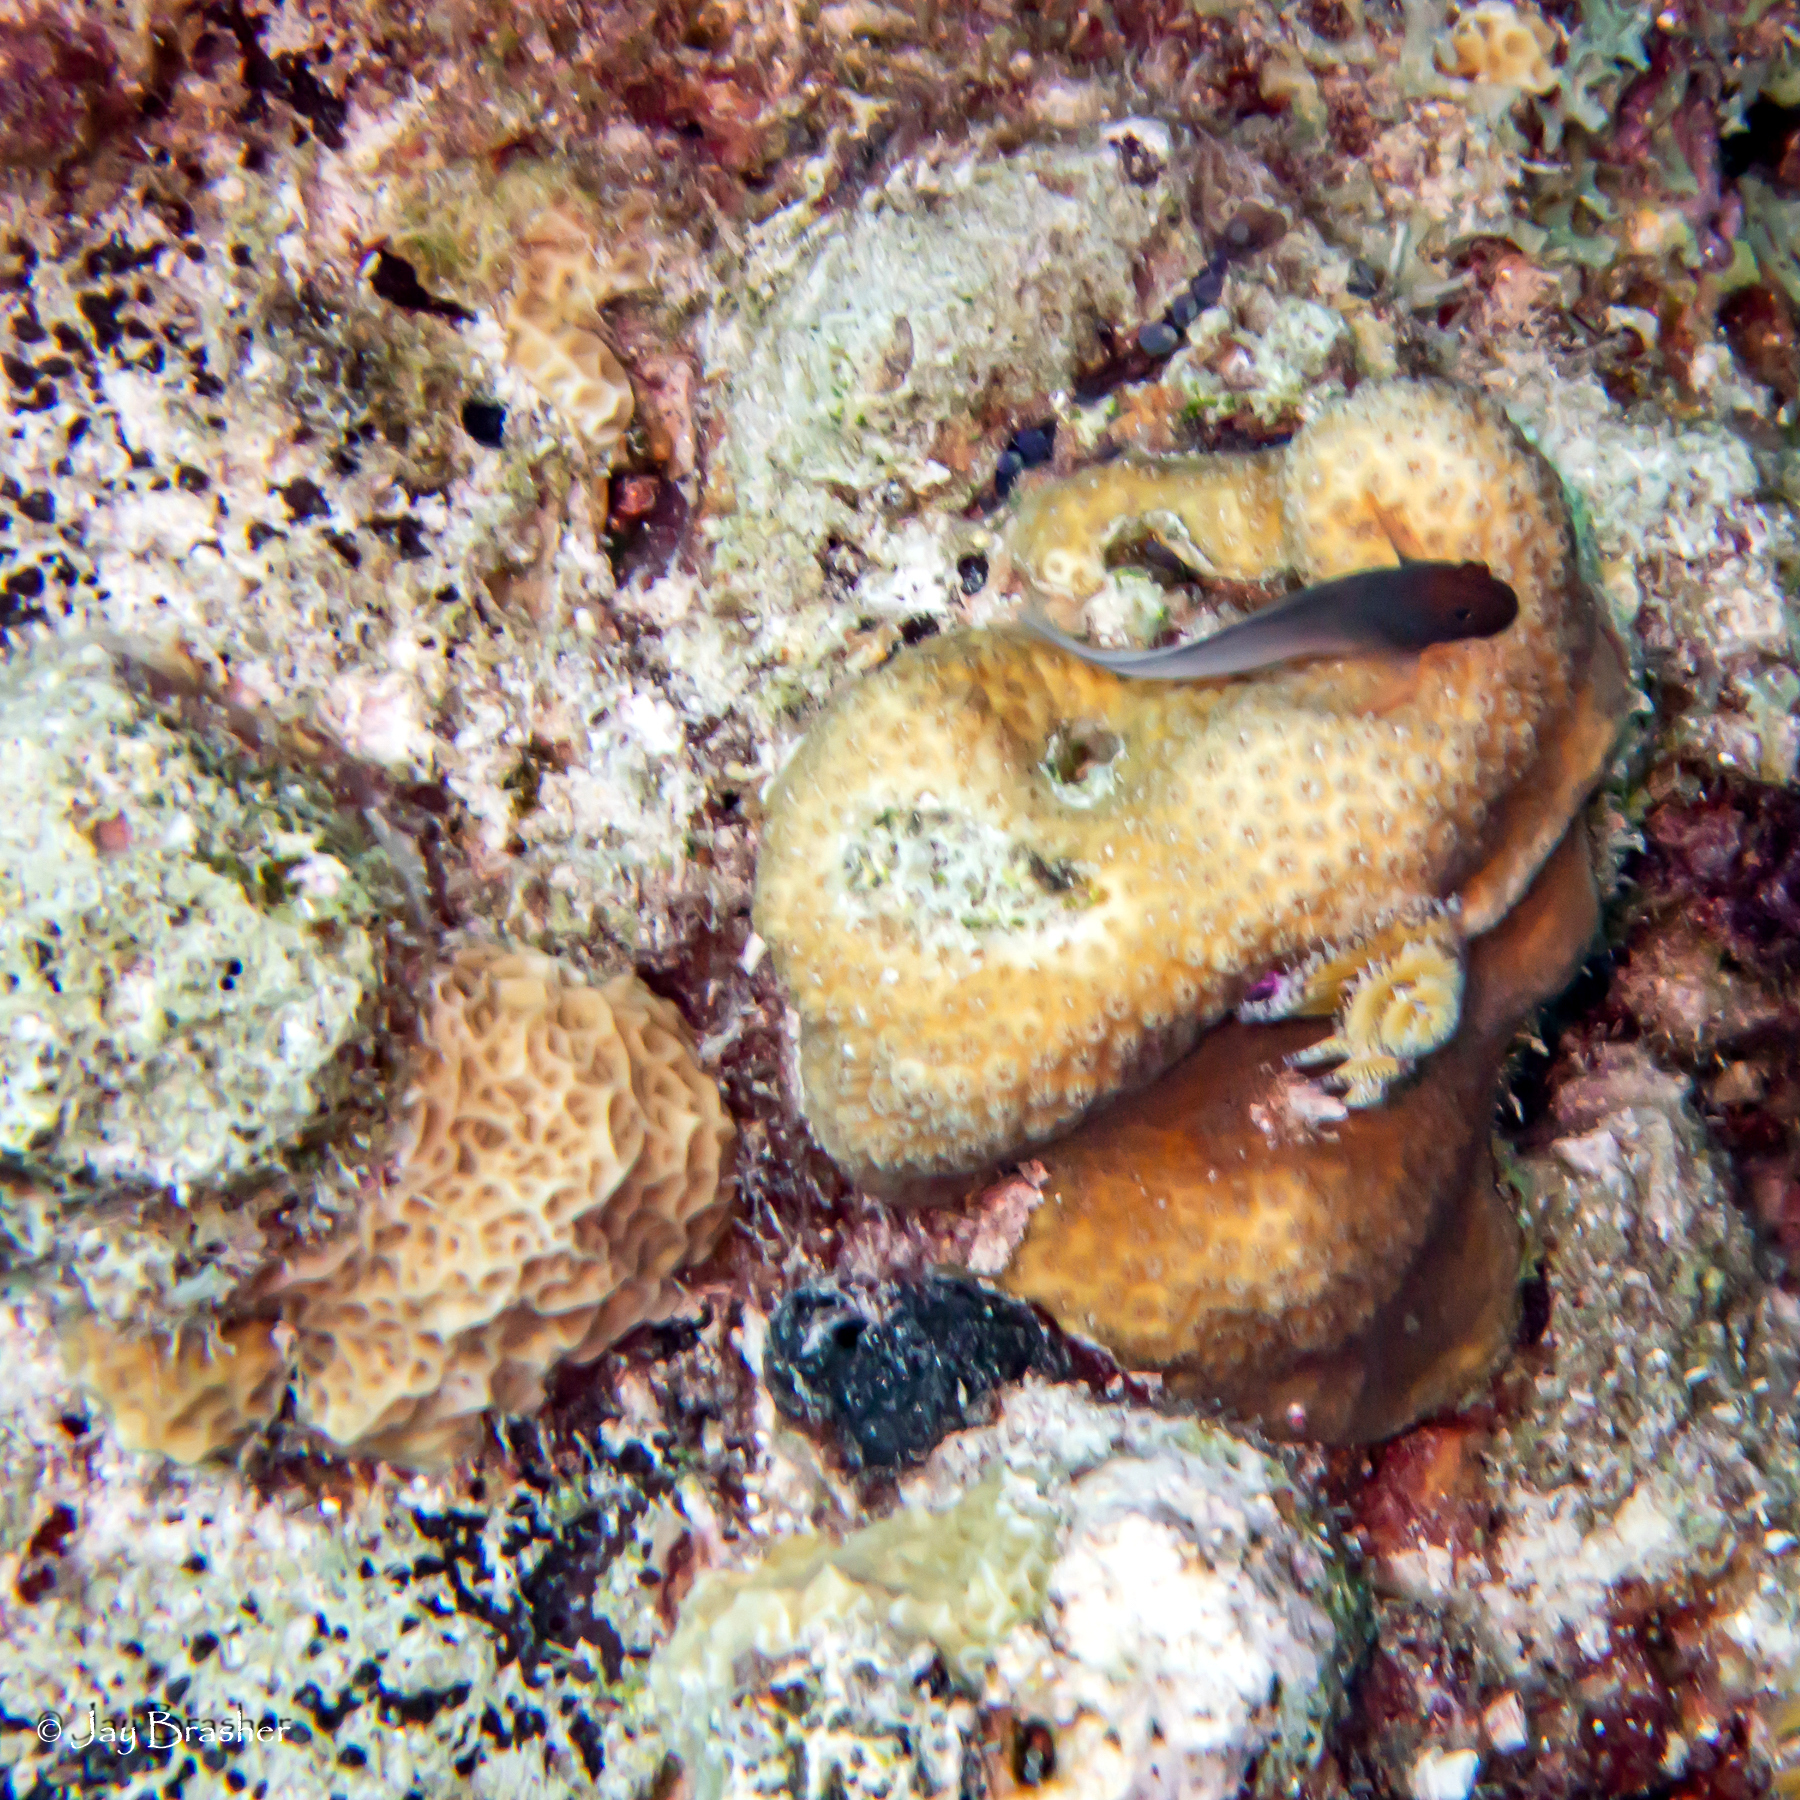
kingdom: Animalia
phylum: Porifera
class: Demospongiae
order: Clionaida
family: Clionaidae
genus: Cliona
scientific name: Cliona aprica
